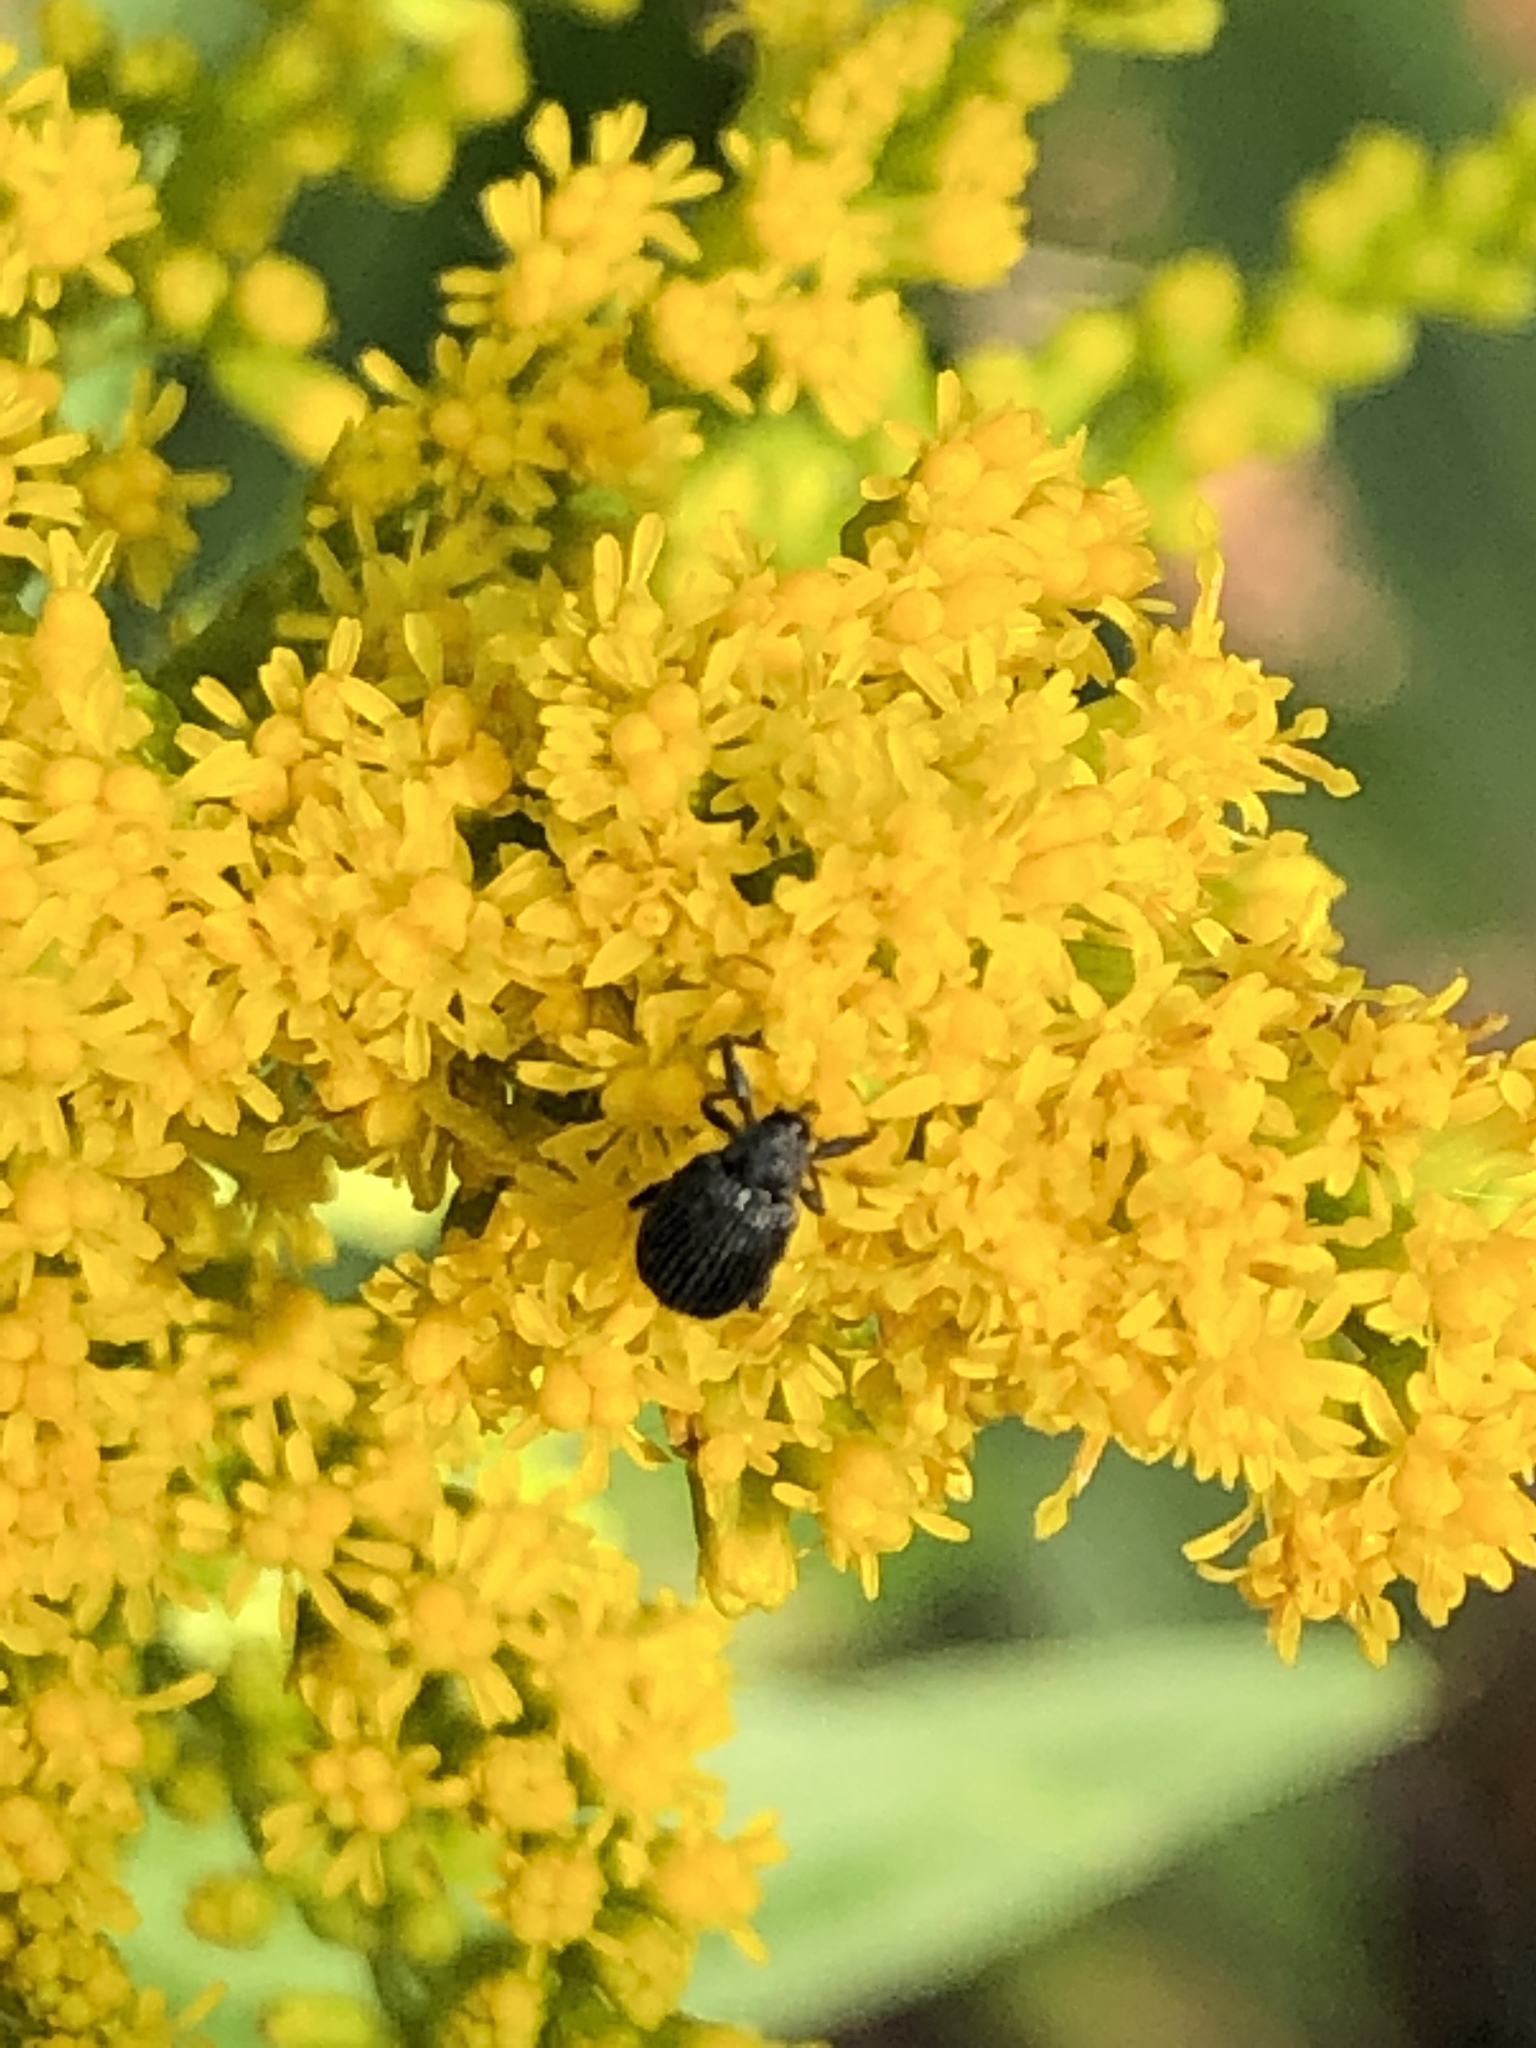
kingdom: Animalia
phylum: Arthropoda
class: Insecta
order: Coleoptera
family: Curculionidae
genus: Anthonomus
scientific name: Anthonomus rubi
